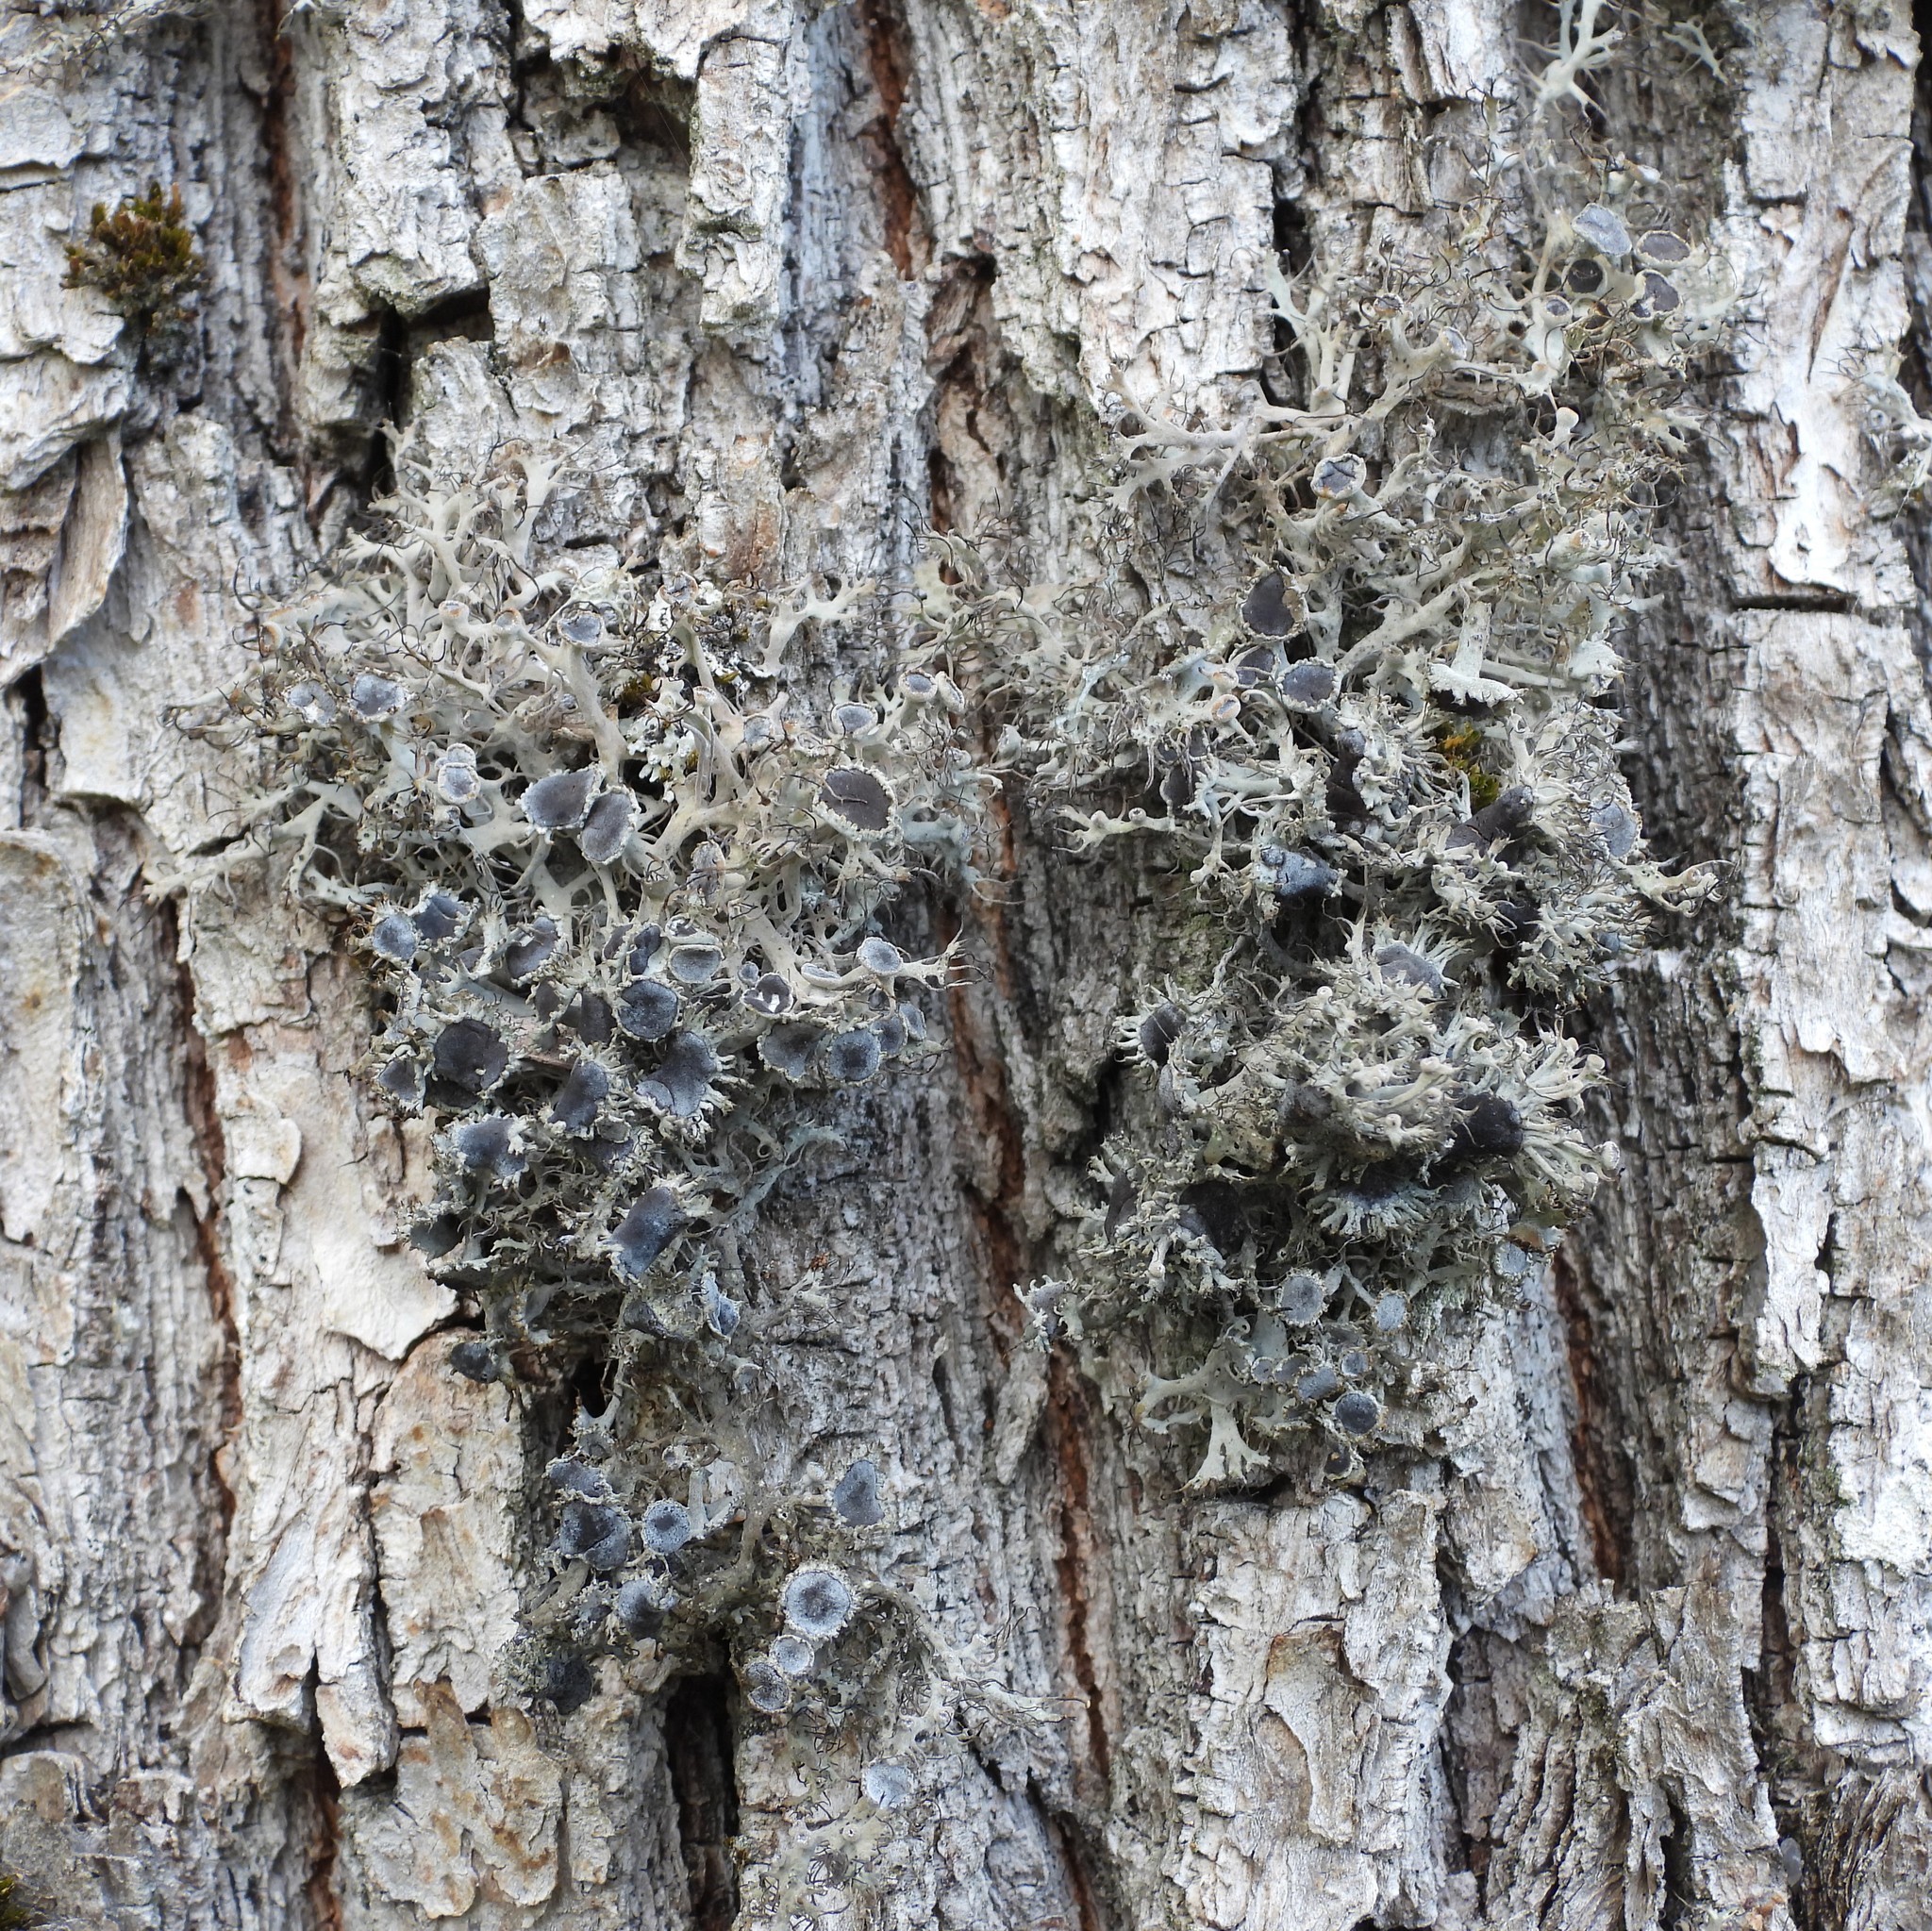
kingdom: Fungi
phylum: Ascomycota
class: Lecanoromycetes
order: Caliciales
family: Physciaceae
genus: Anaptychia
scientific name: Anaptychia ciliaris
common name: Great ciliated lichen
